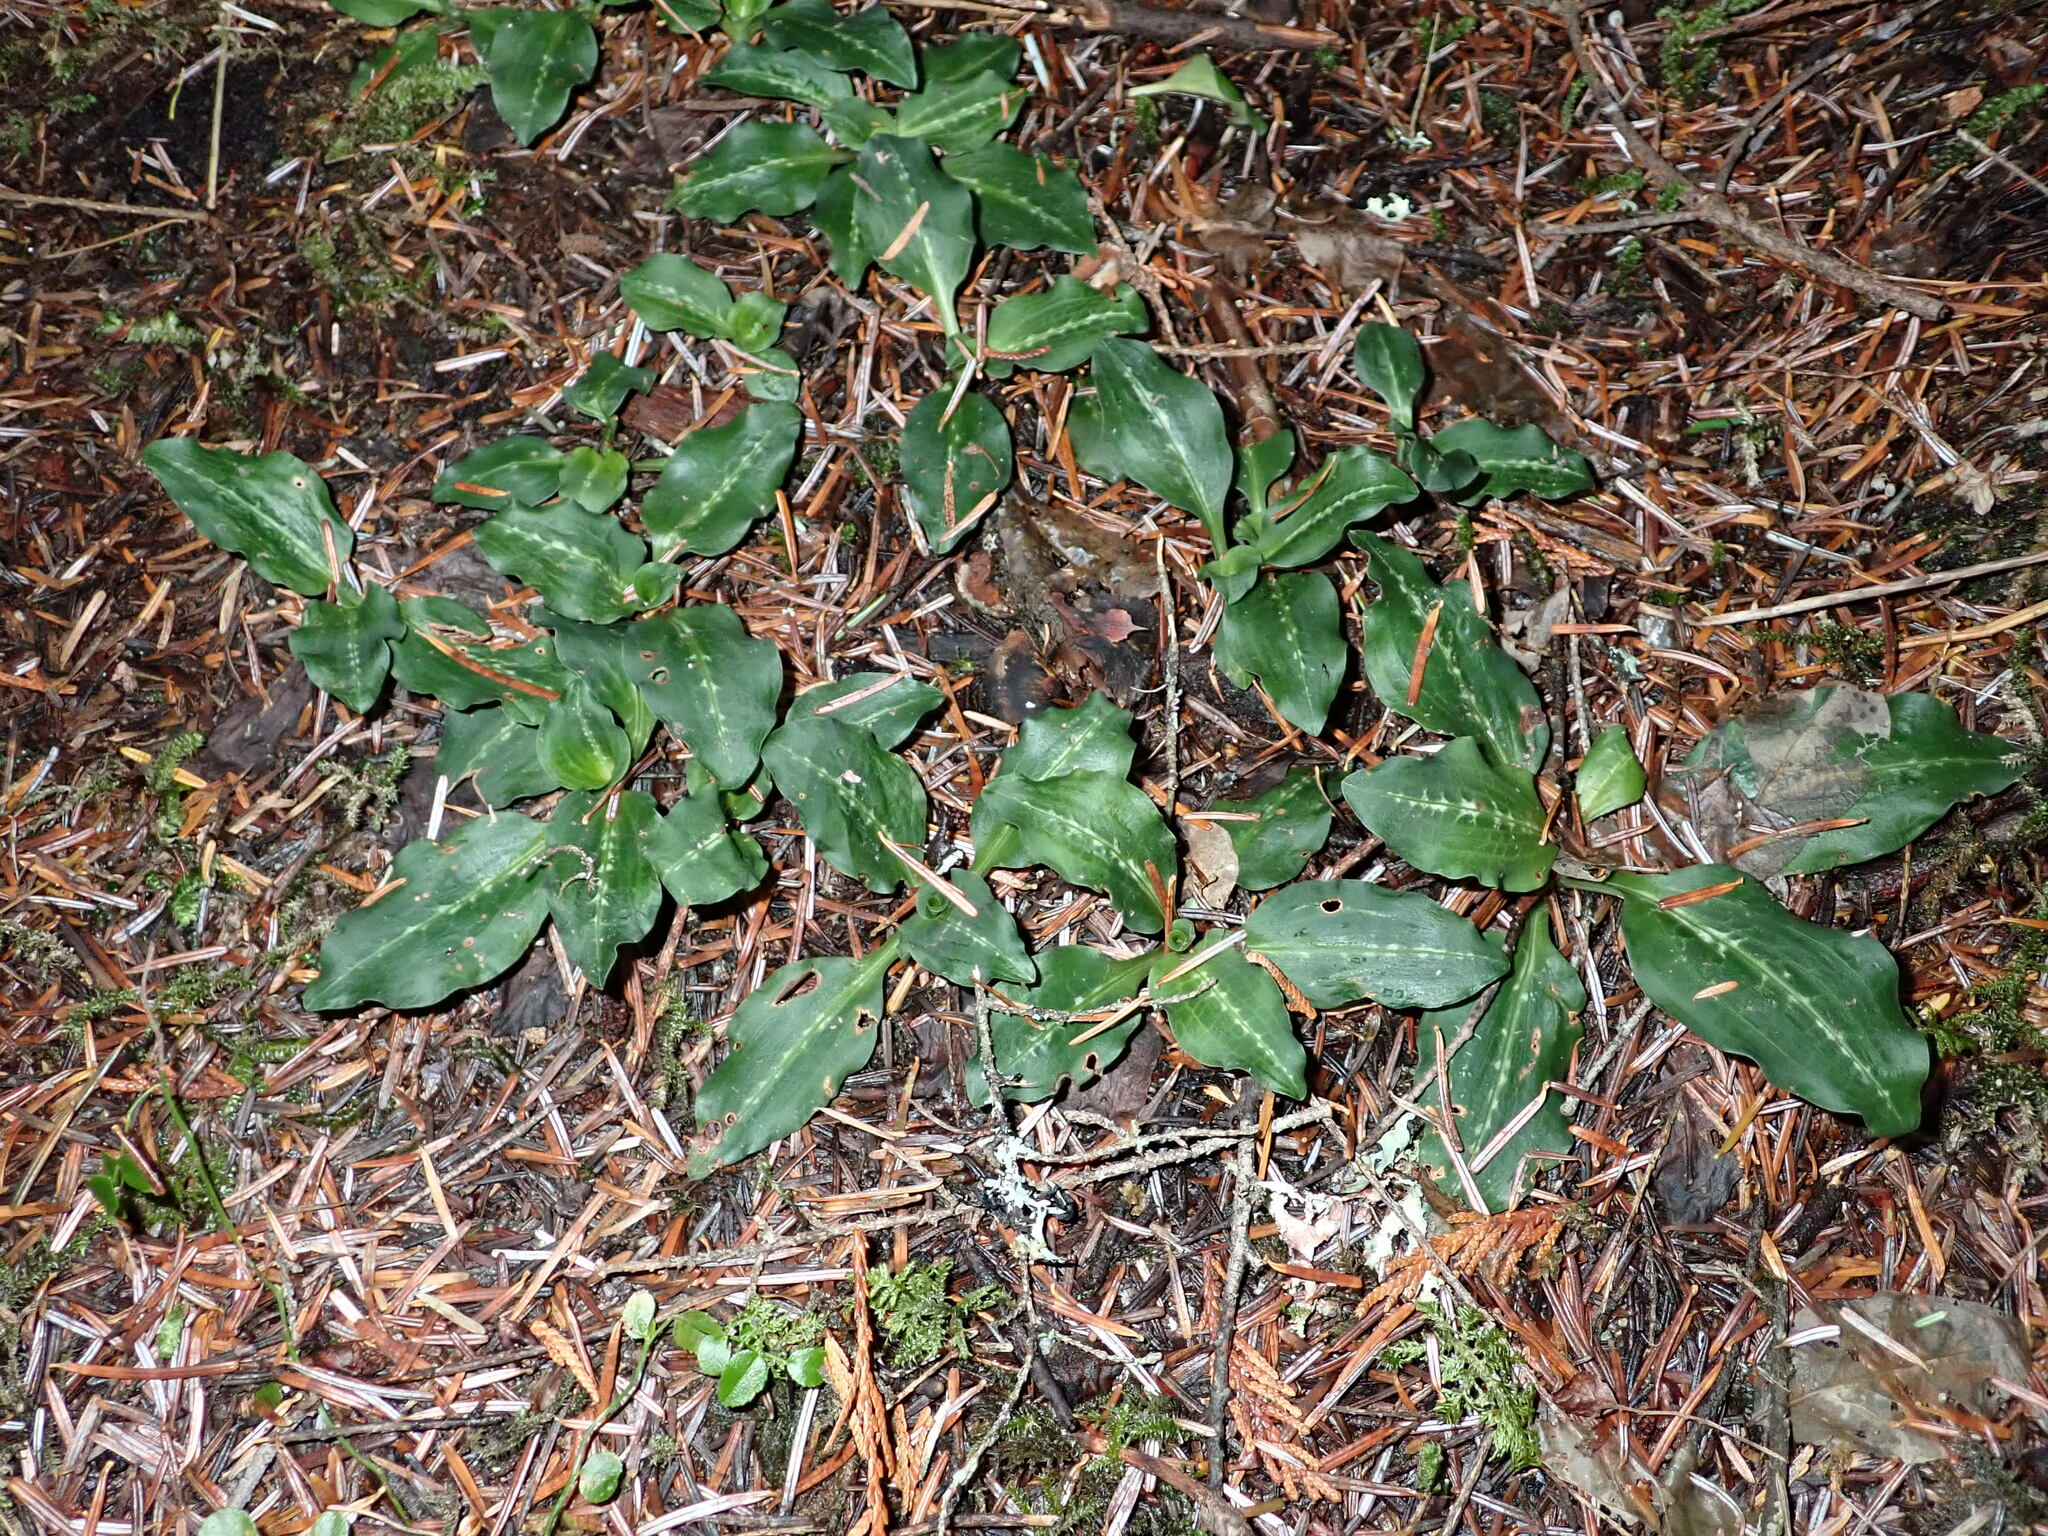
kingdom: Plantae
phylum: Tracheophyta
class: Liliopsida
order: Asparagales
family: Orchidaceae
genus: Goodyera
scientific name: Goodyera oblongifolia
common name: Giant rattlesnake-plantain
